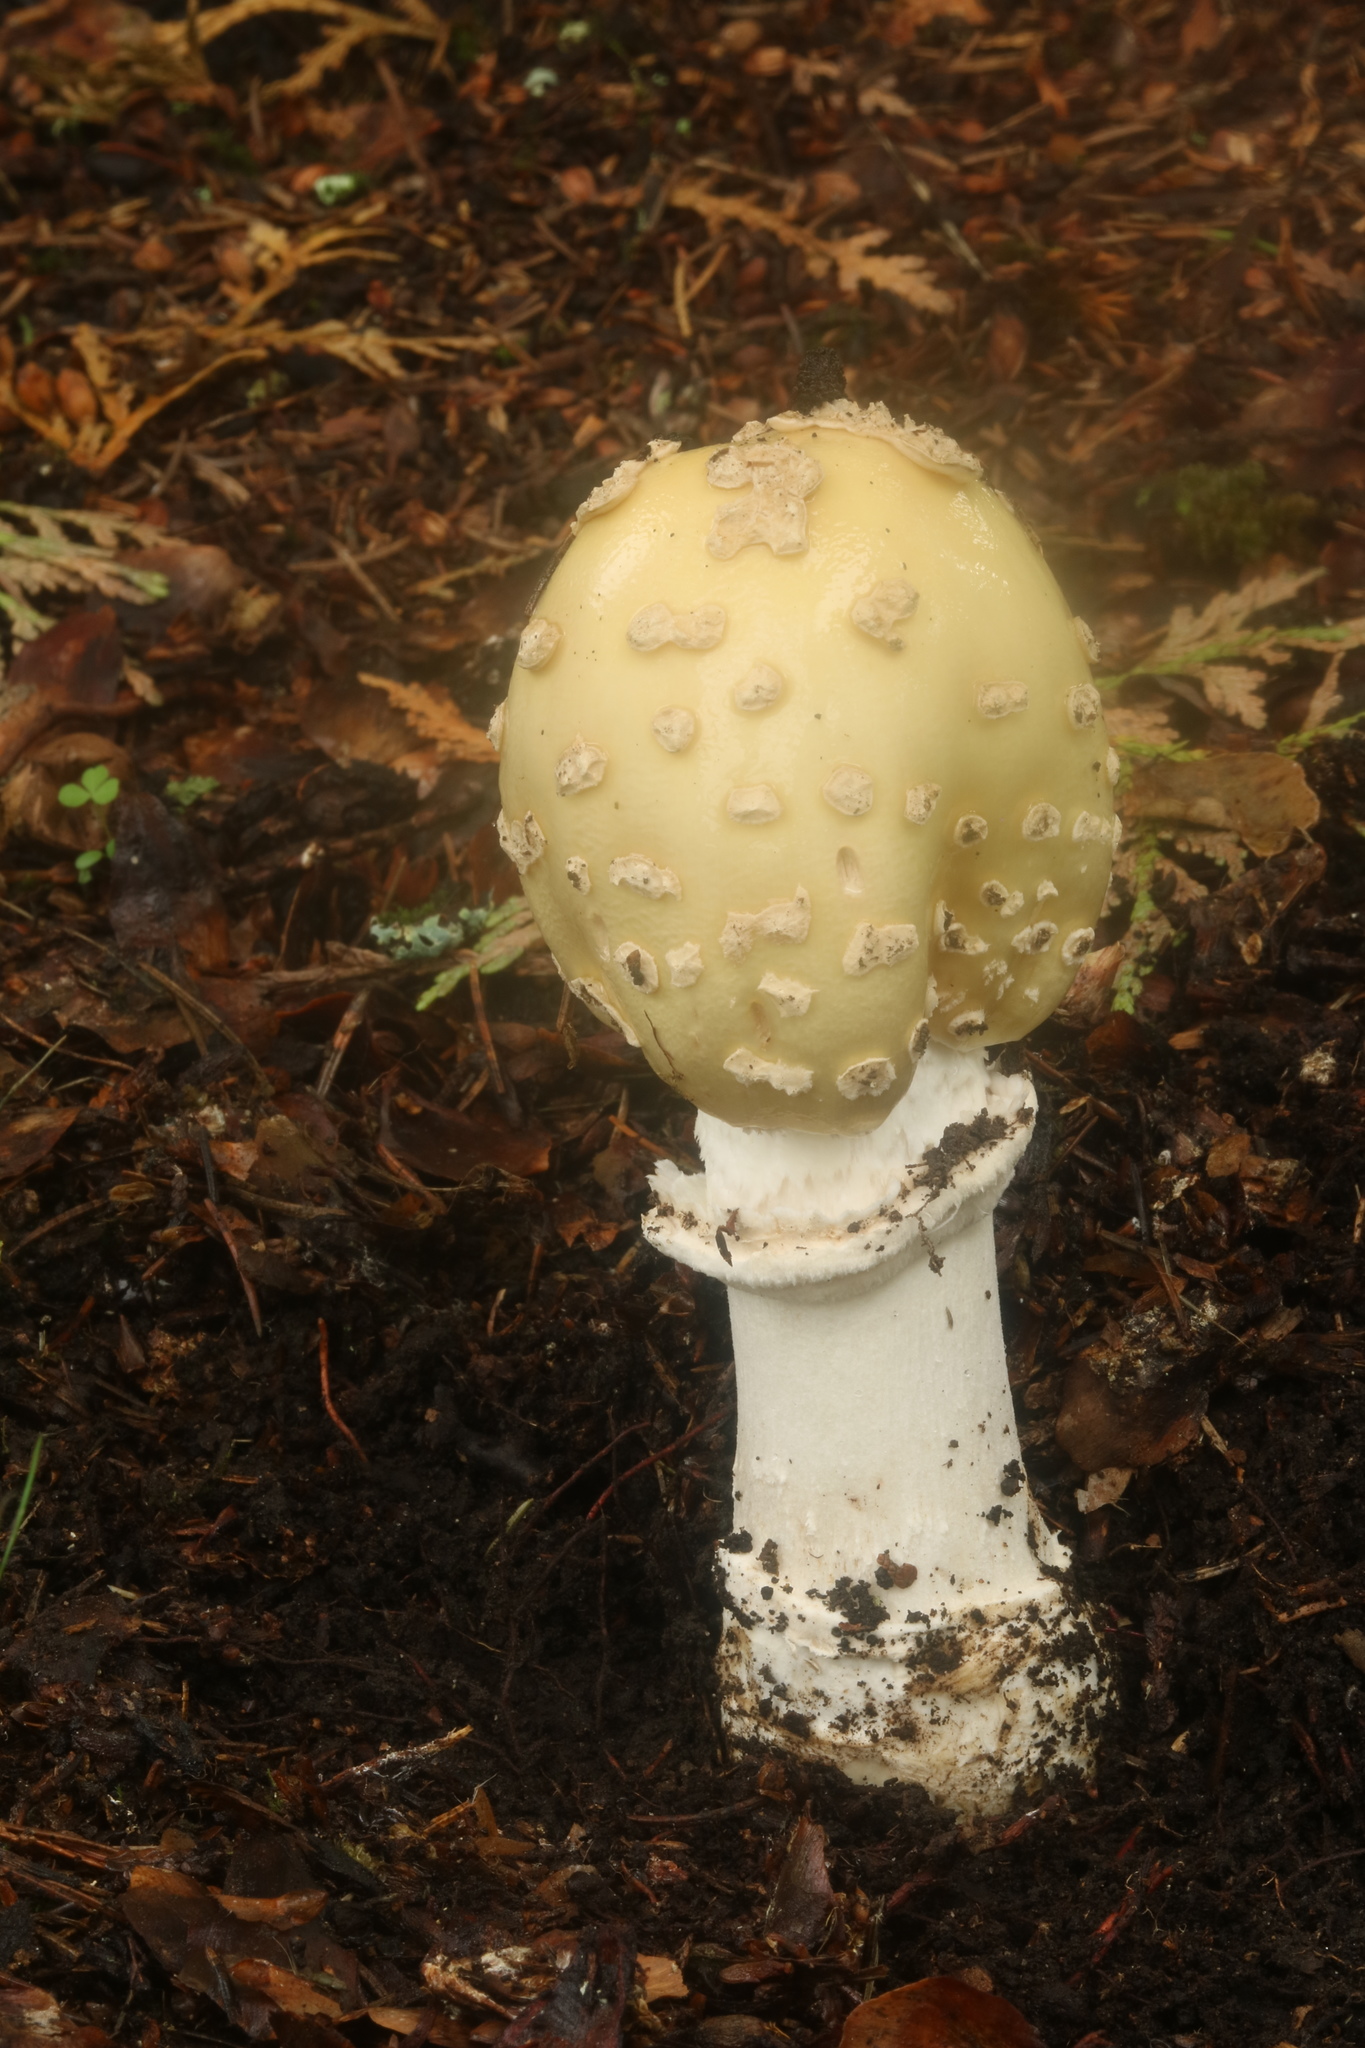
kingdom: Fungi
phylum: Basidiomycota
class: Agaricomycetes
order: Agaricales
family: Amanitaceae
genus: Amanita
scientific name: Amanita velatipes
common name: Great funnel-veil amanita
